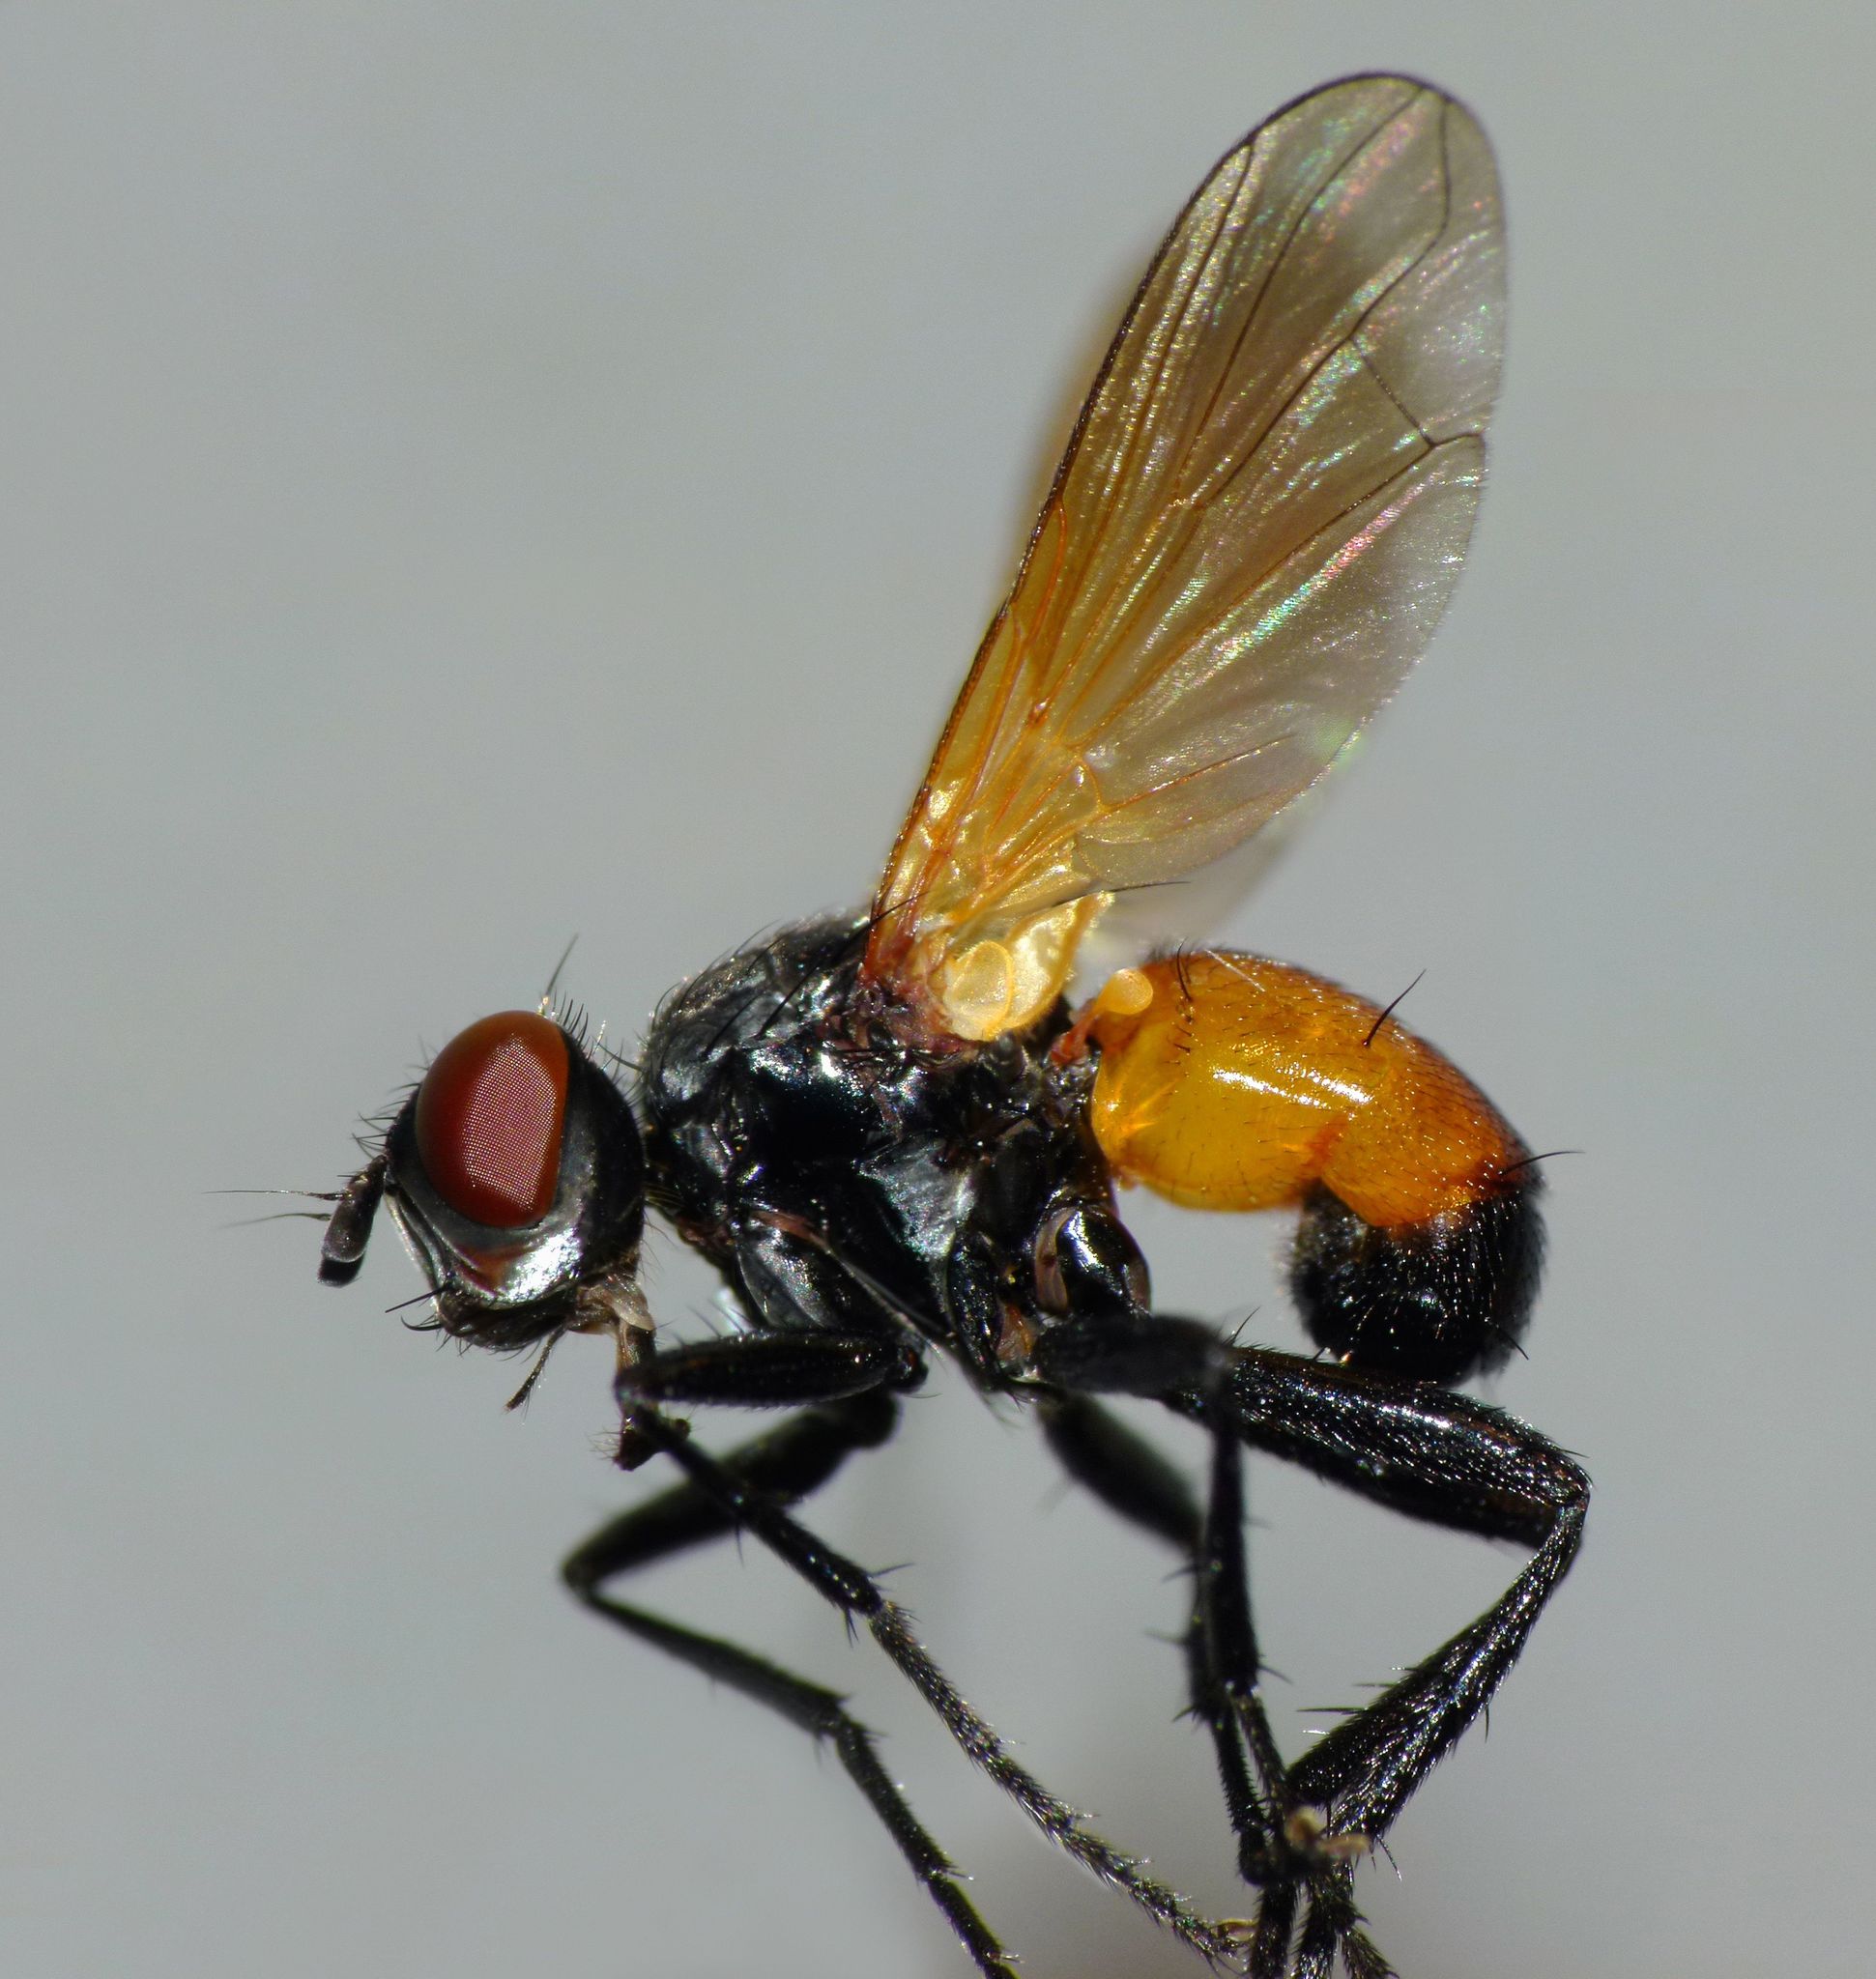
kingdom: Animalia
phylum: Arthropoda
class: Insecta
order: Diptera
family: Tachinidae
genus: Huttonobesseria
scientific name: Huttonobesseria verecunda
